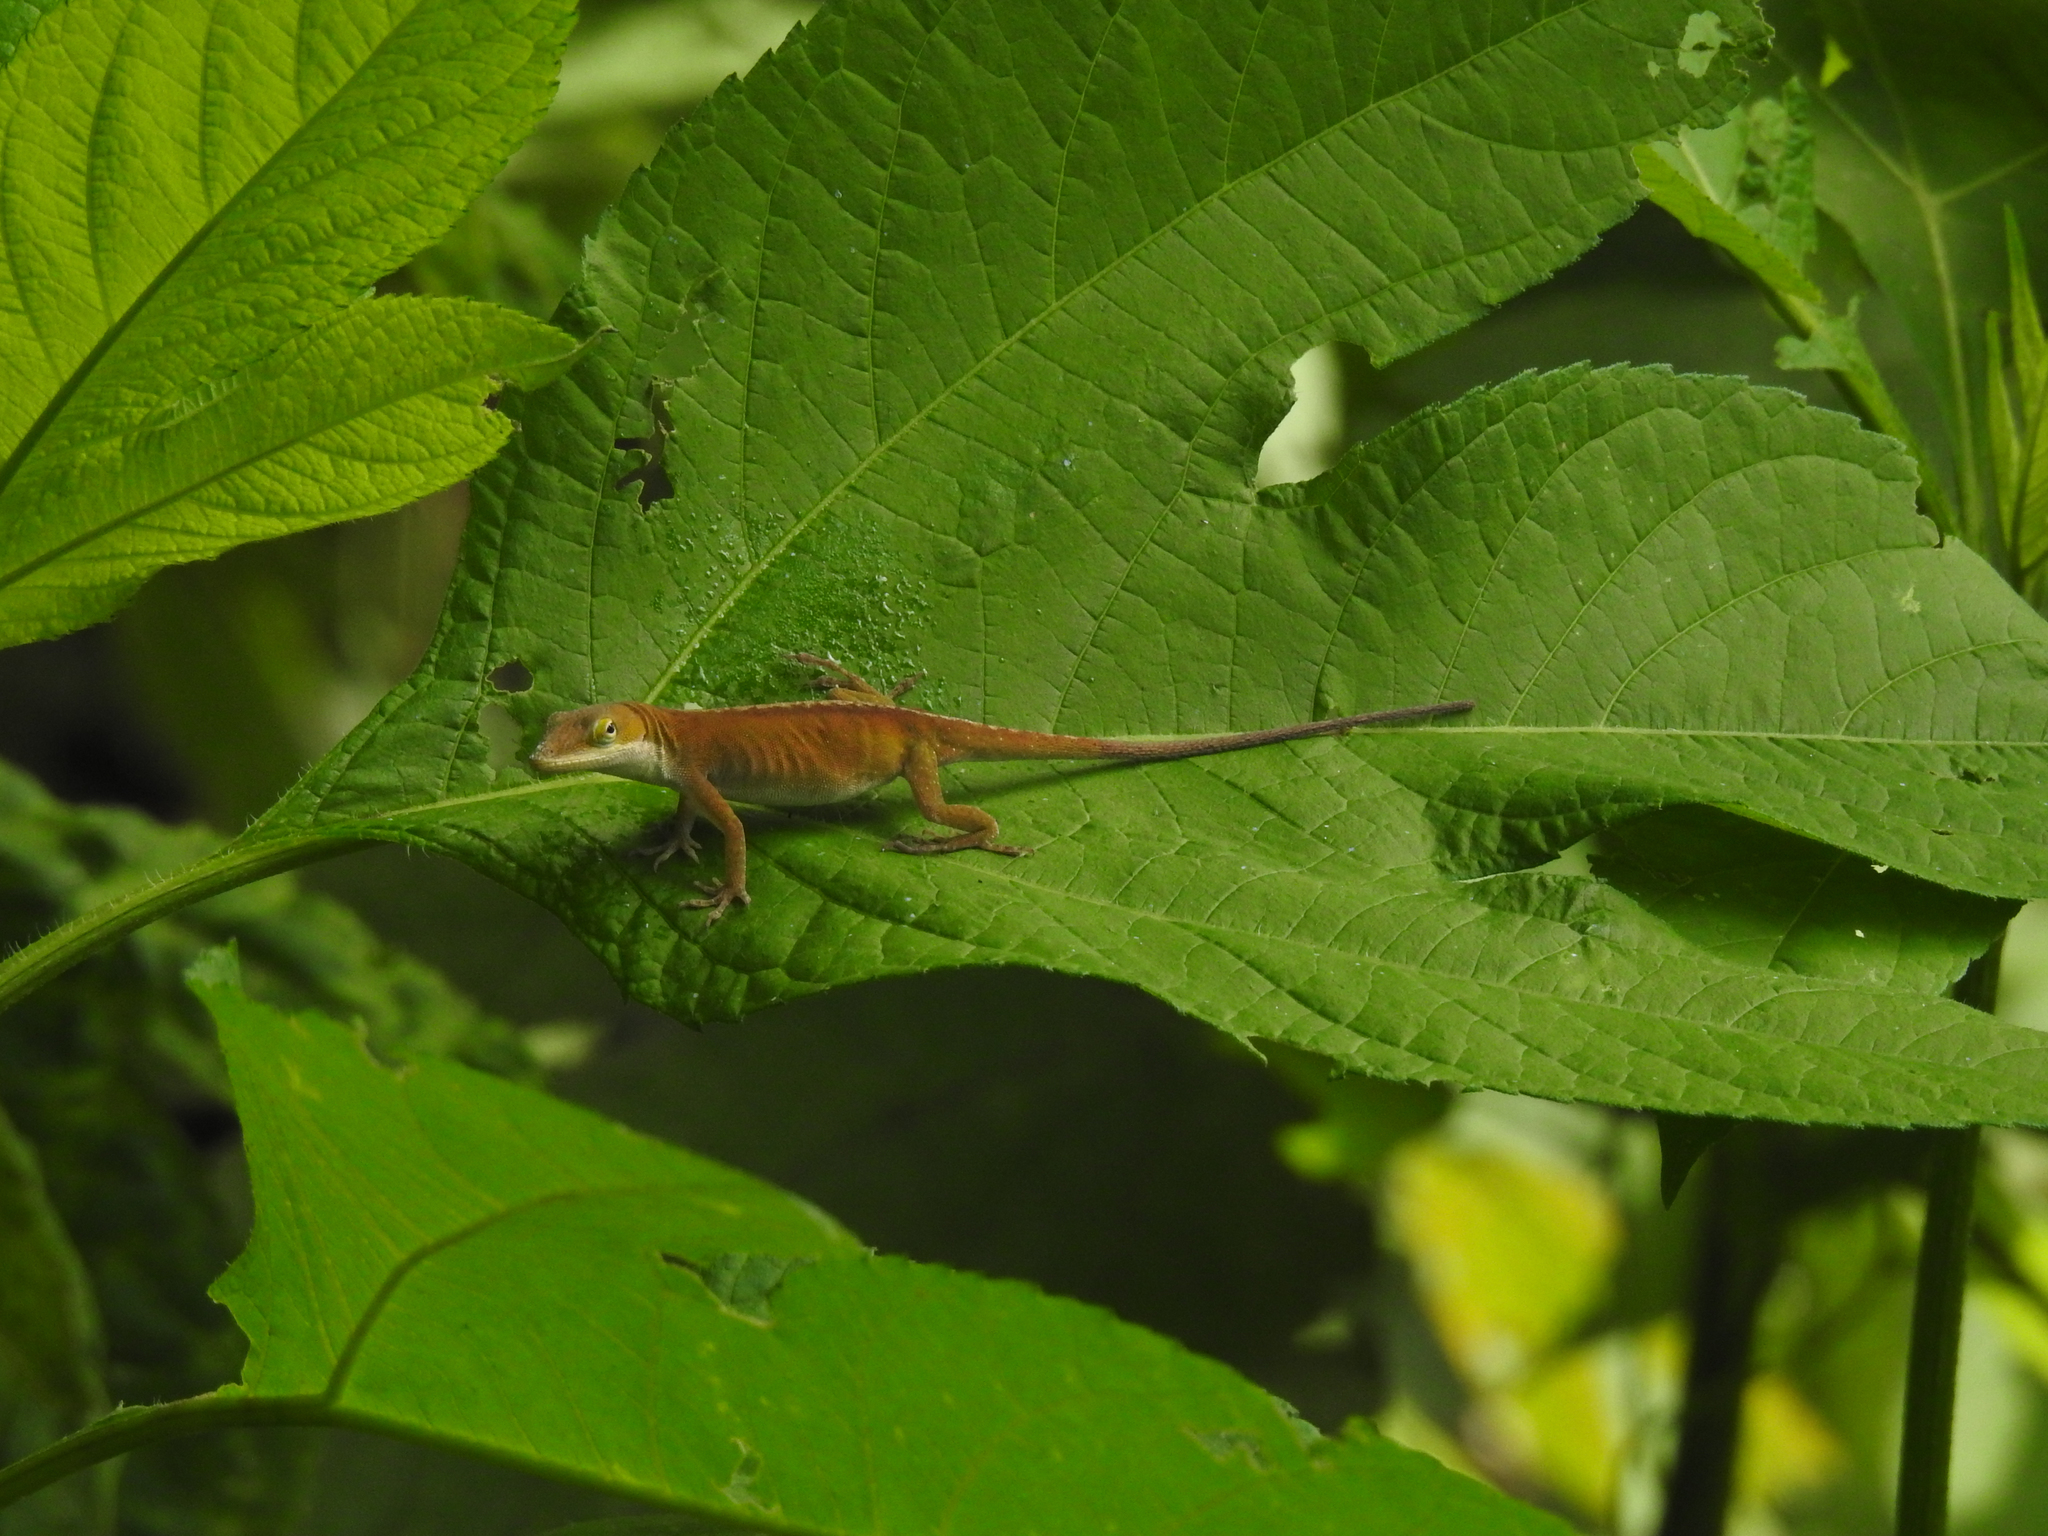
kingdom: Animalia
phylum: Chordata
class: Squamata
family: Dactyloidae
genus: Anolis
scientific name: Anolis carolinensis
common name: Green anole
